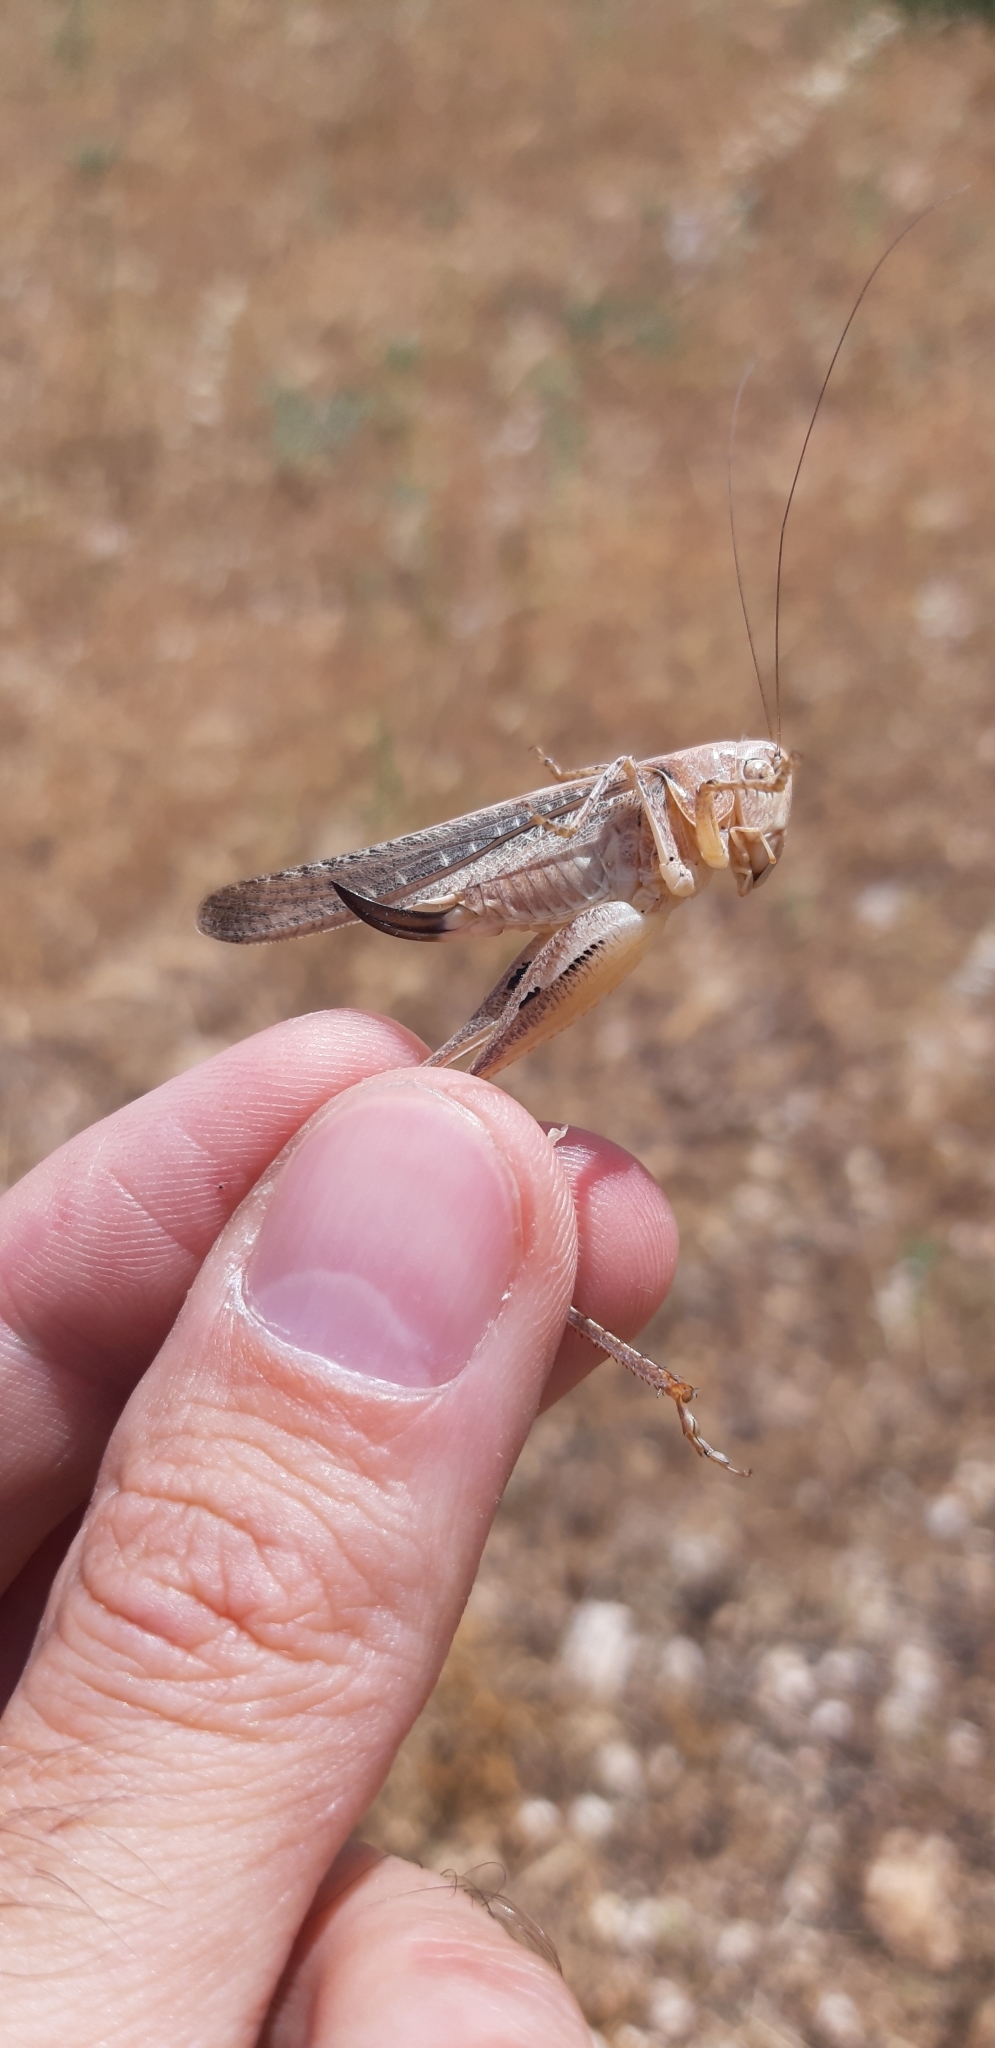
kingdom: Animalia
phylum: Arthropoda
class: Insecta
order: Orthoptera
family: Tettigoniidae
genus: Platycleis
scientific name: Platycleis intermedia
